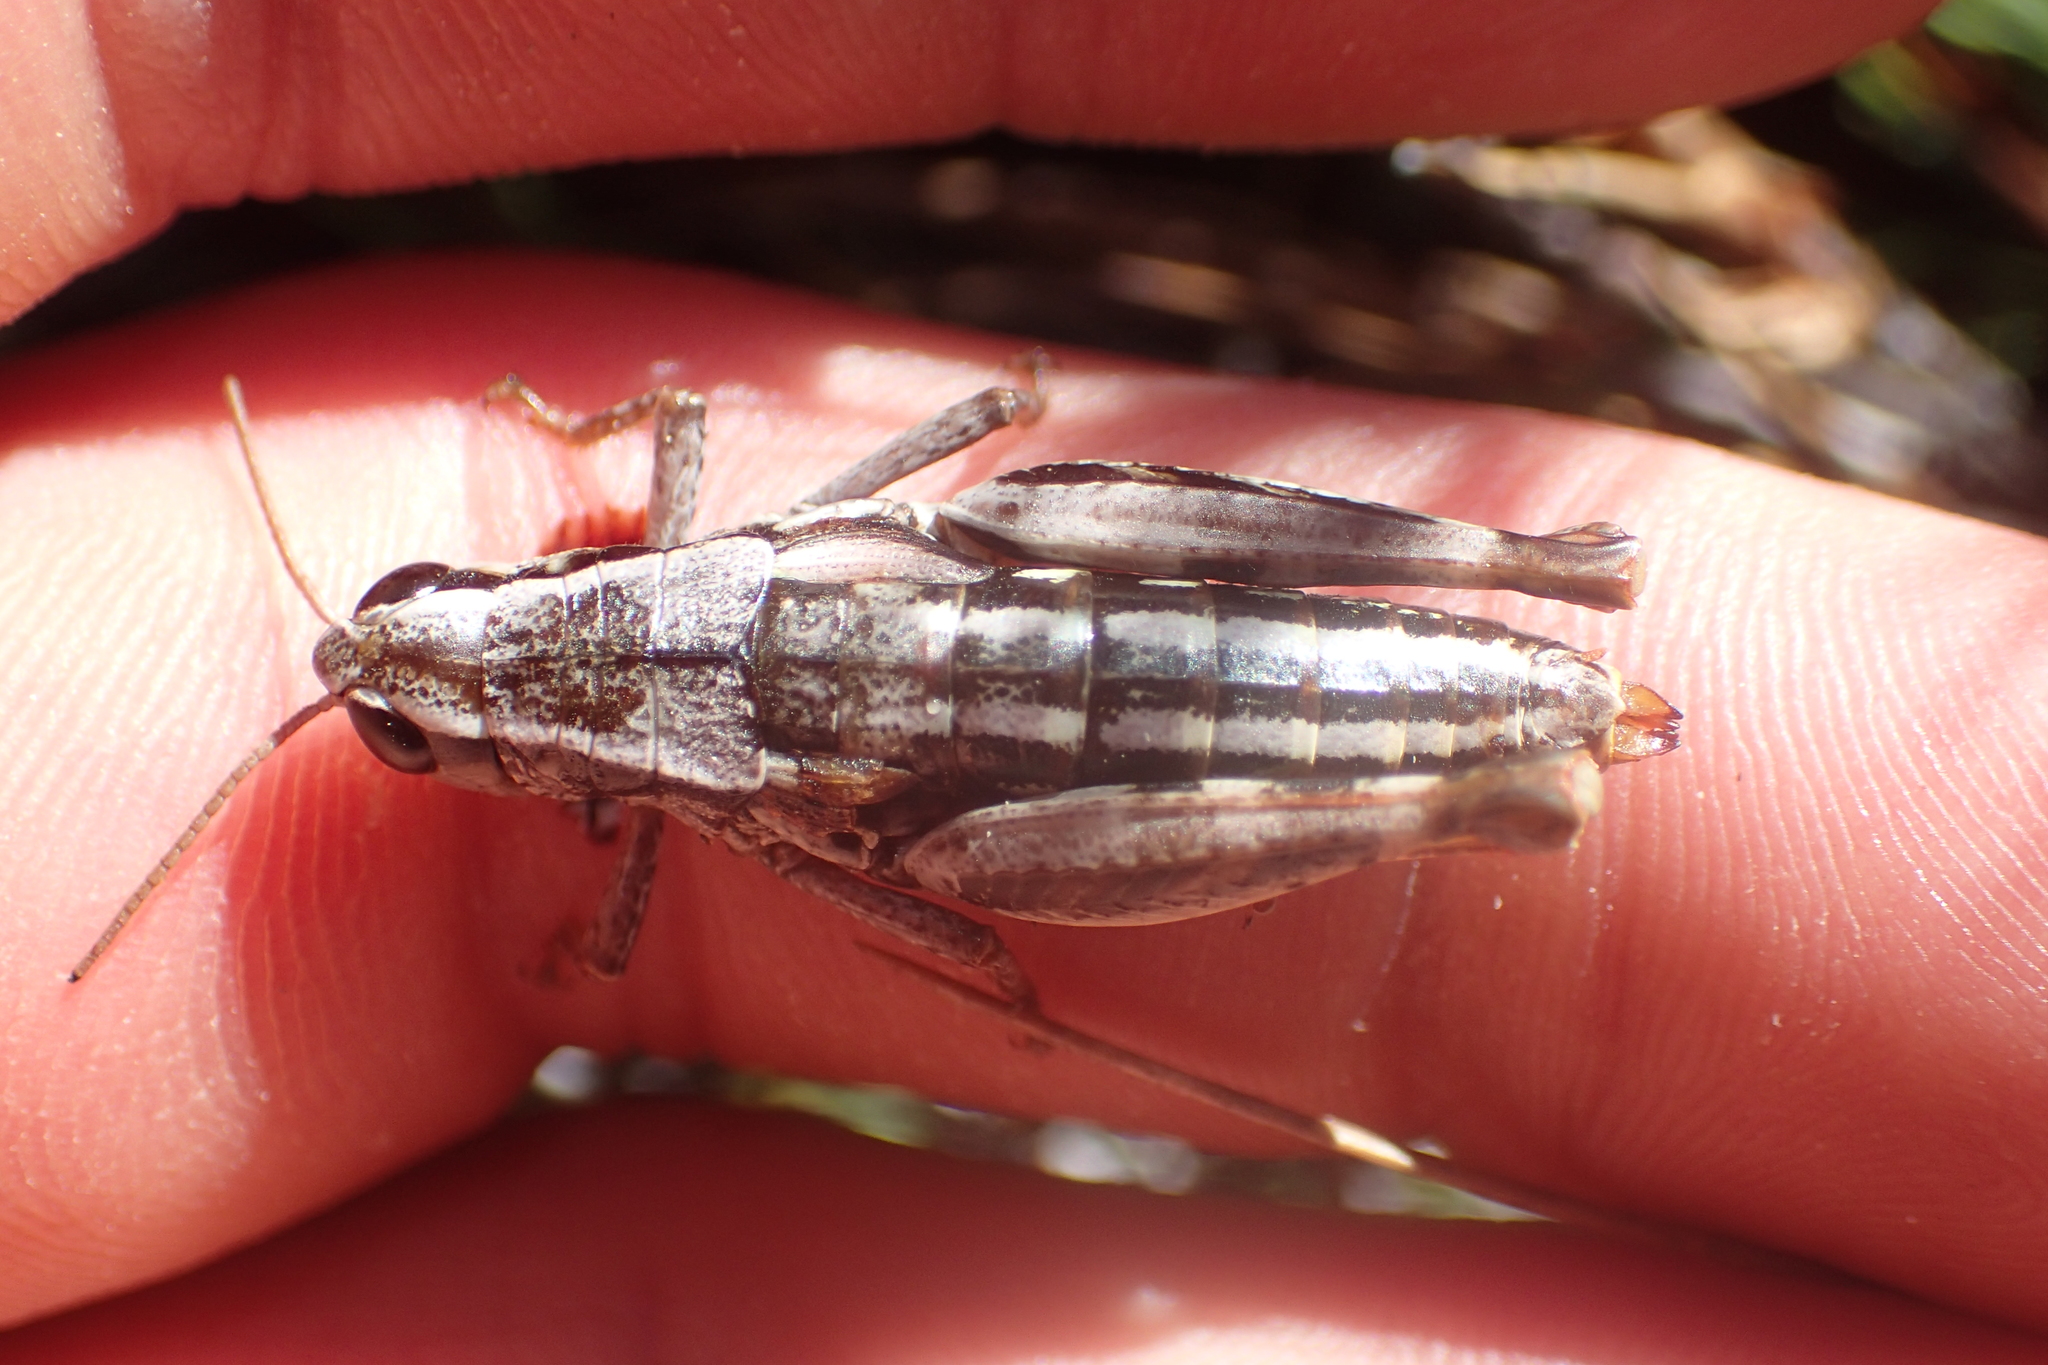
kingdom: Animalia
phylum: Arthropoda
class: Insecta
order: Orthoptera
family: Acrididae
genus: Sigaus
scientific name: Sigaus
